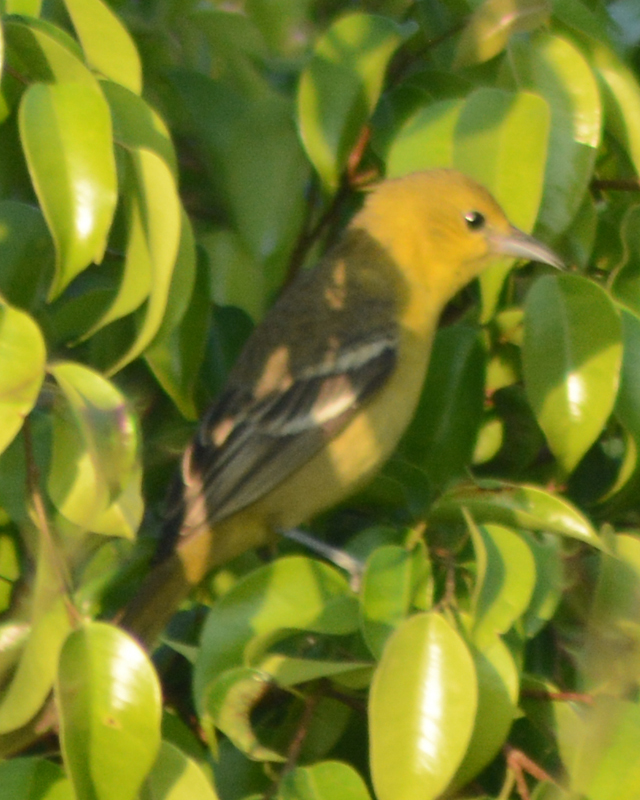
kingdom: Animalia
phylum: Chordata
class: Aves
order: Passeriformes
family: Icteridae
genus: Icterus
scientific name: Icterus spurius
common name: Orchard oriole
